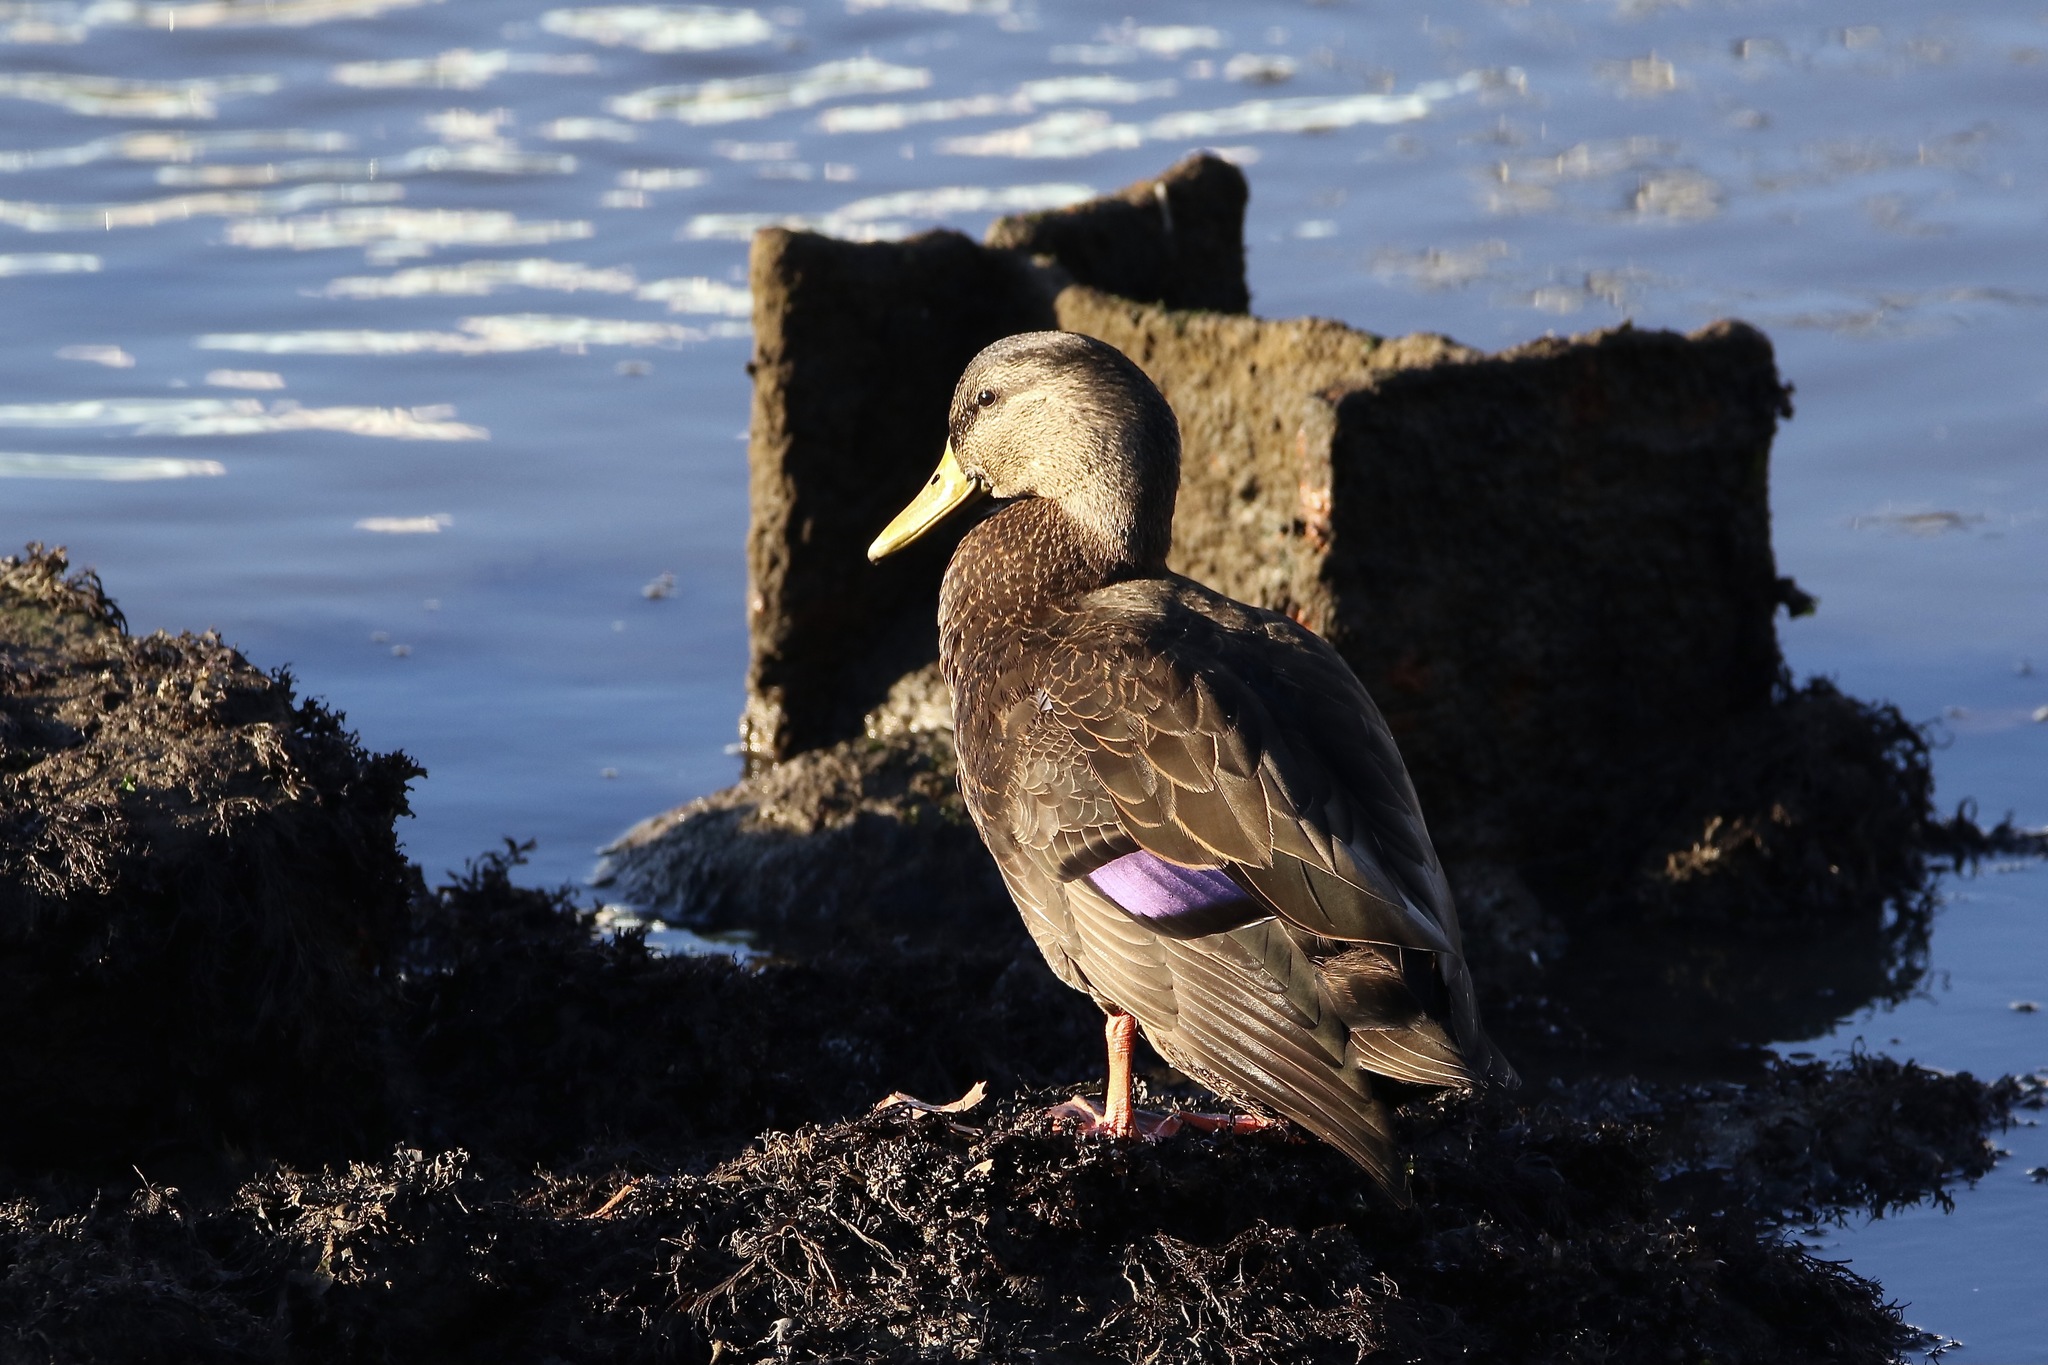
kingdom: Animalia
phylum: Chordata
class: Aves
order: Anseriformes
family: Anatidae
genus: Anas
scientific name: Anas rubripes
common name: American black duck
